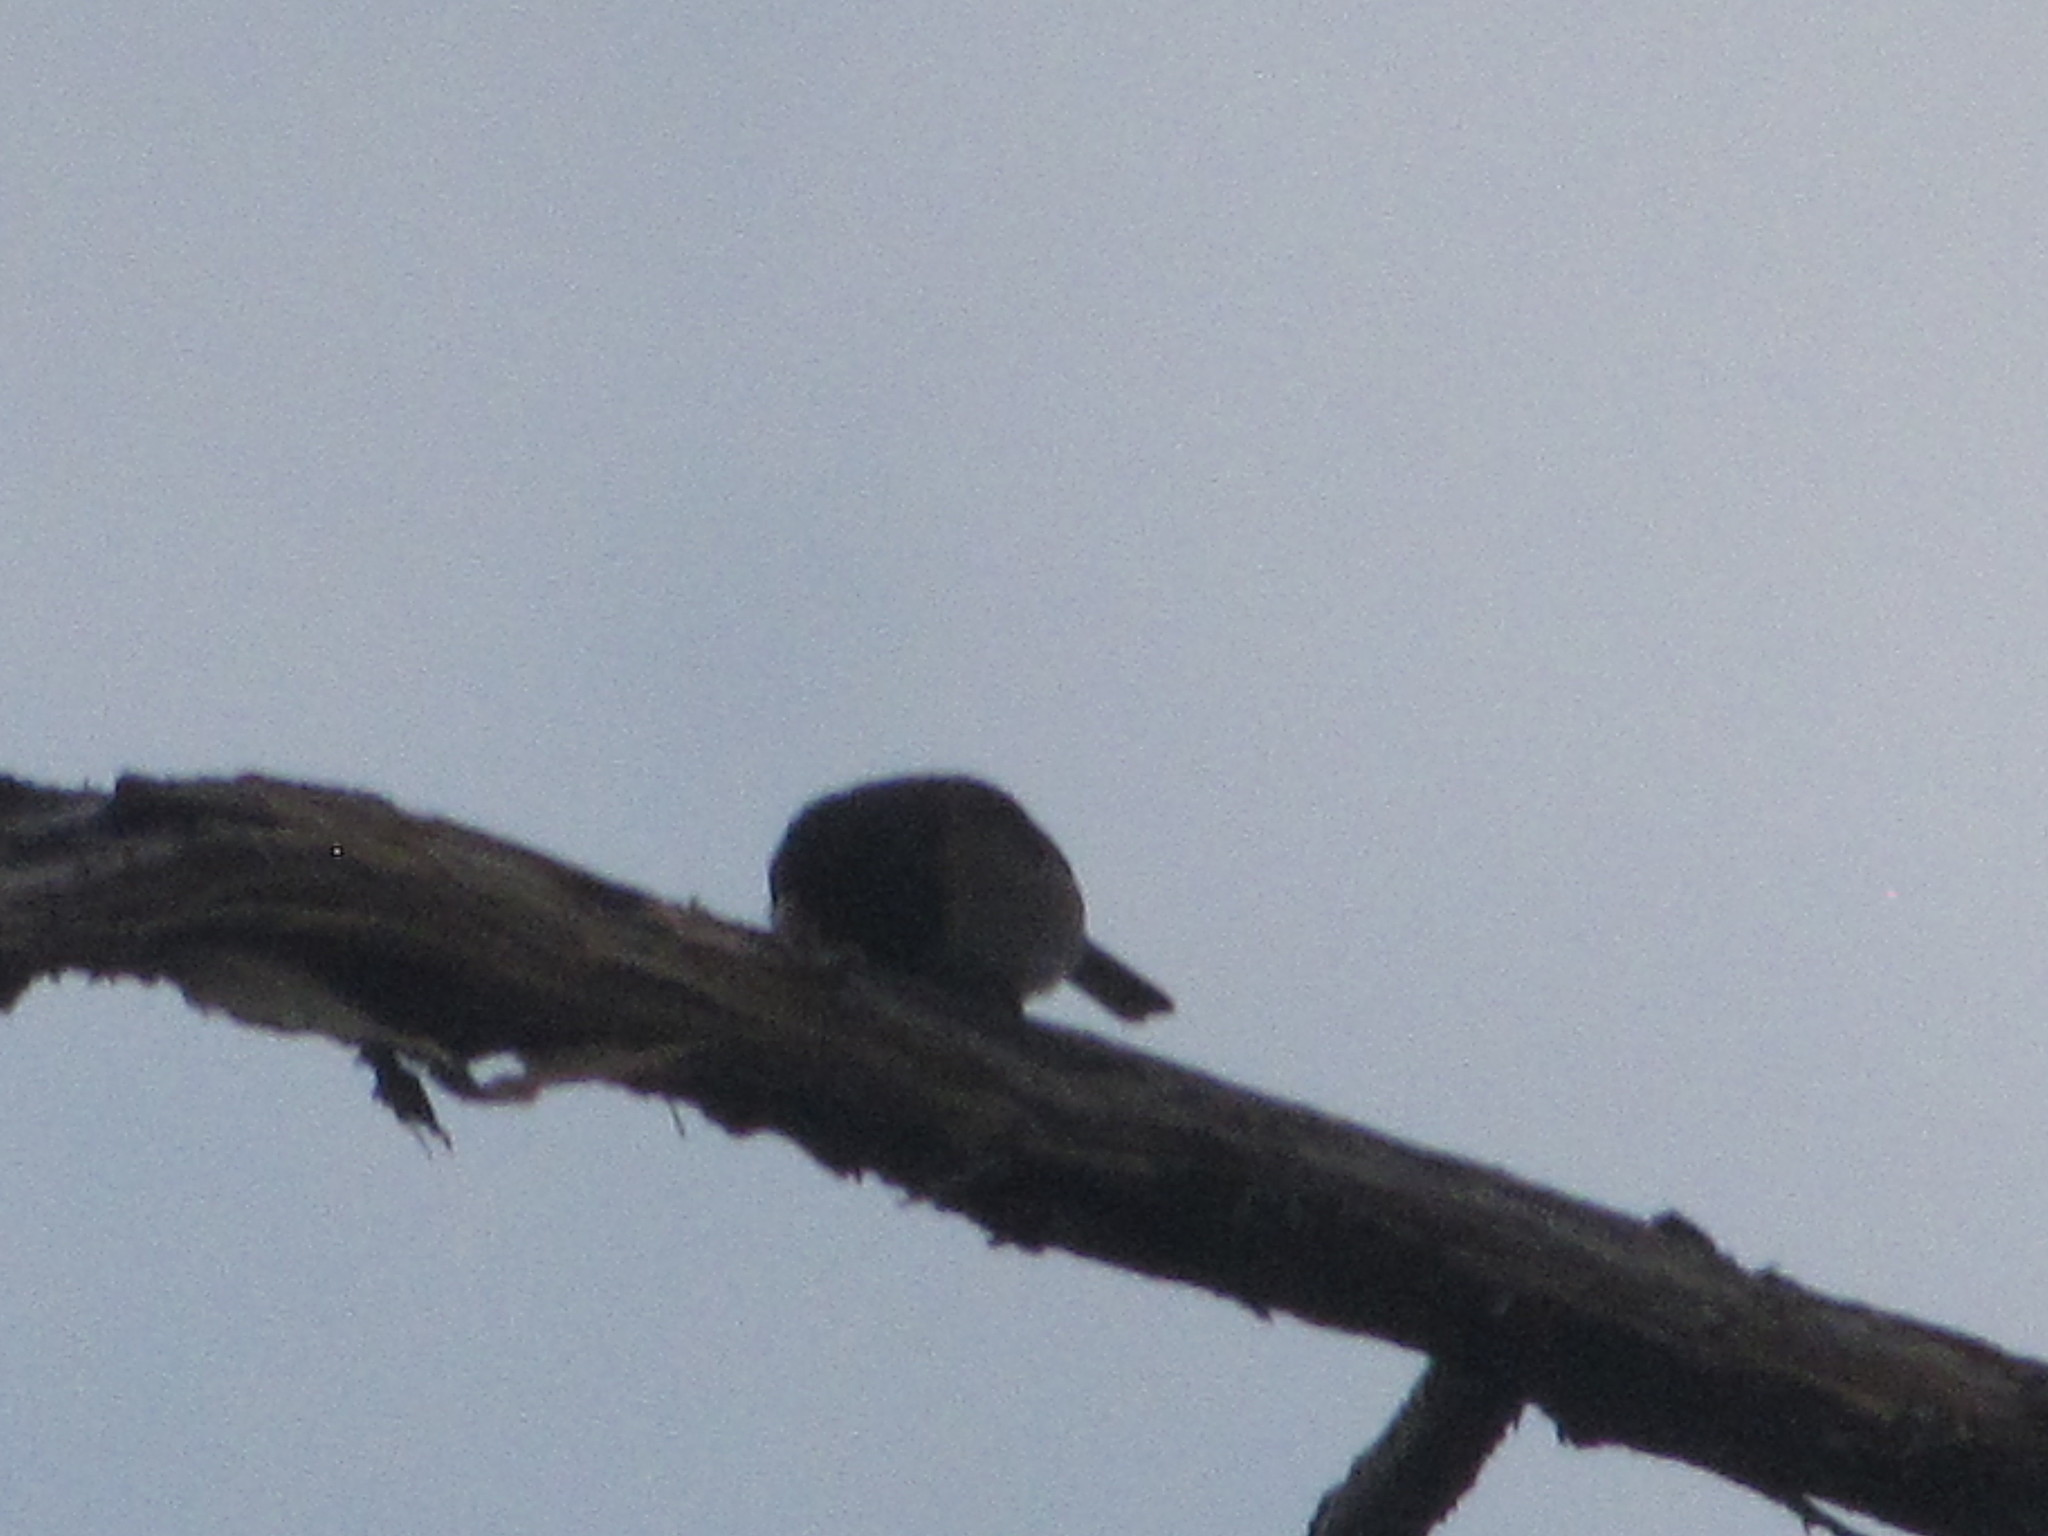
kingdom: Animalia
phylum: Chordata
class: Aves
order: Passeriformes
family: Passerellidae
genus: Junco
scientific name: Junco hyemalis
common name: Dark-eyed junco
